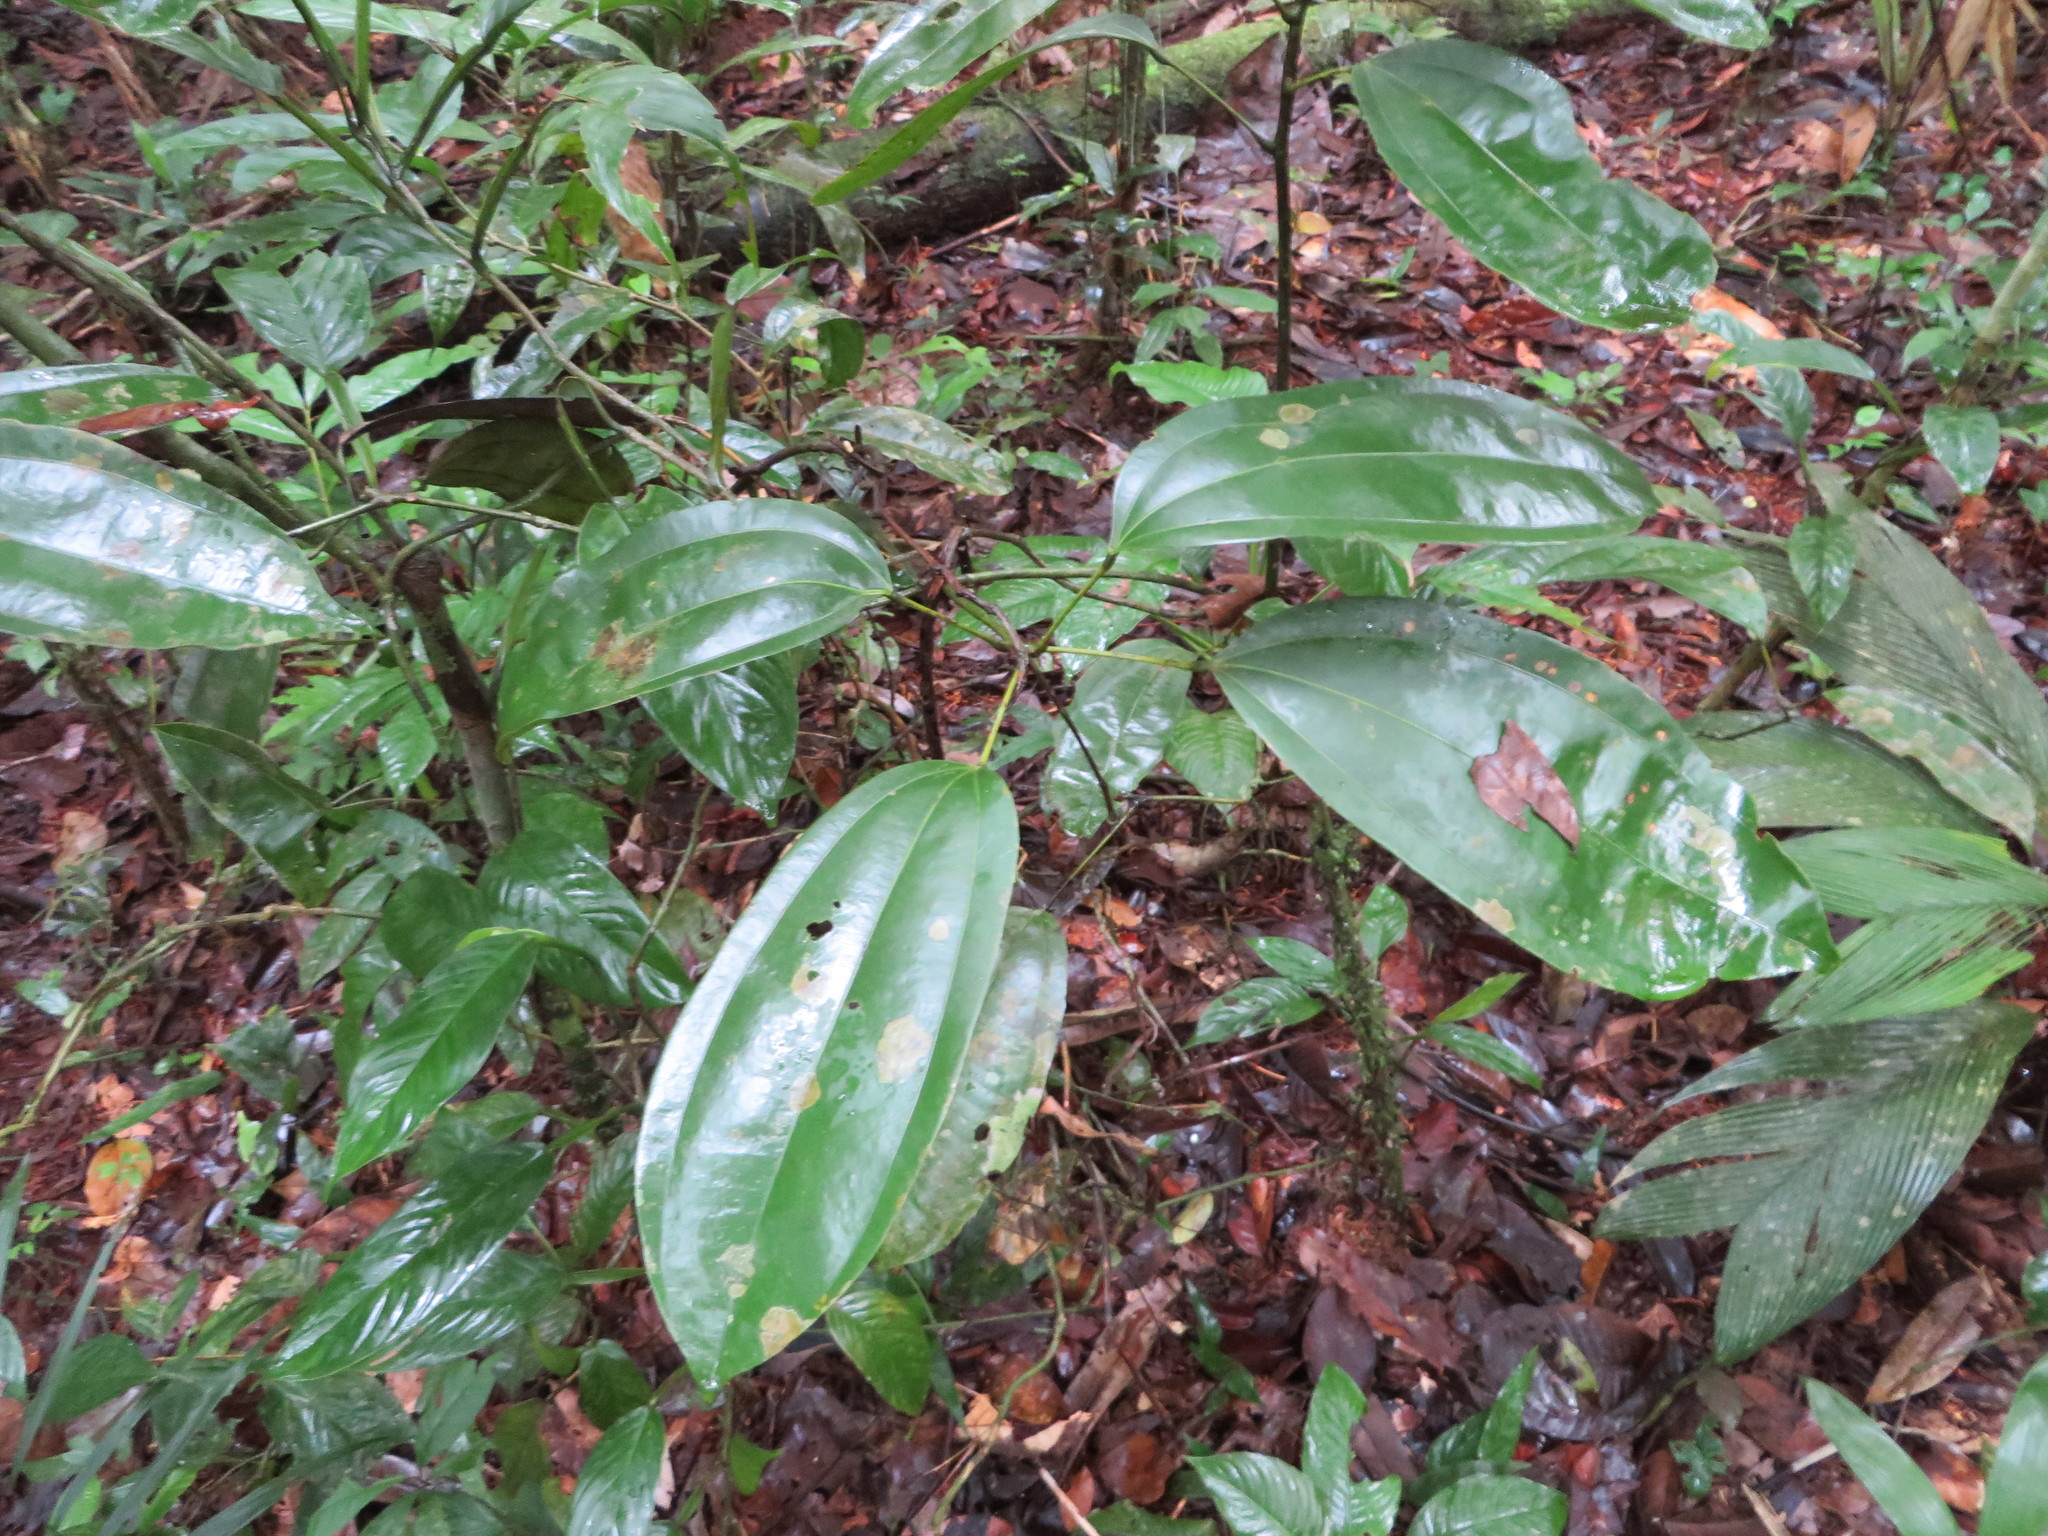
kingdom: Plantae
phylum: Tracheophyta
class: Magnoliopsida
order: Ranunculales
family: Menispermaceae
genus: Abuta
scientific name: Abuta grandifolia
